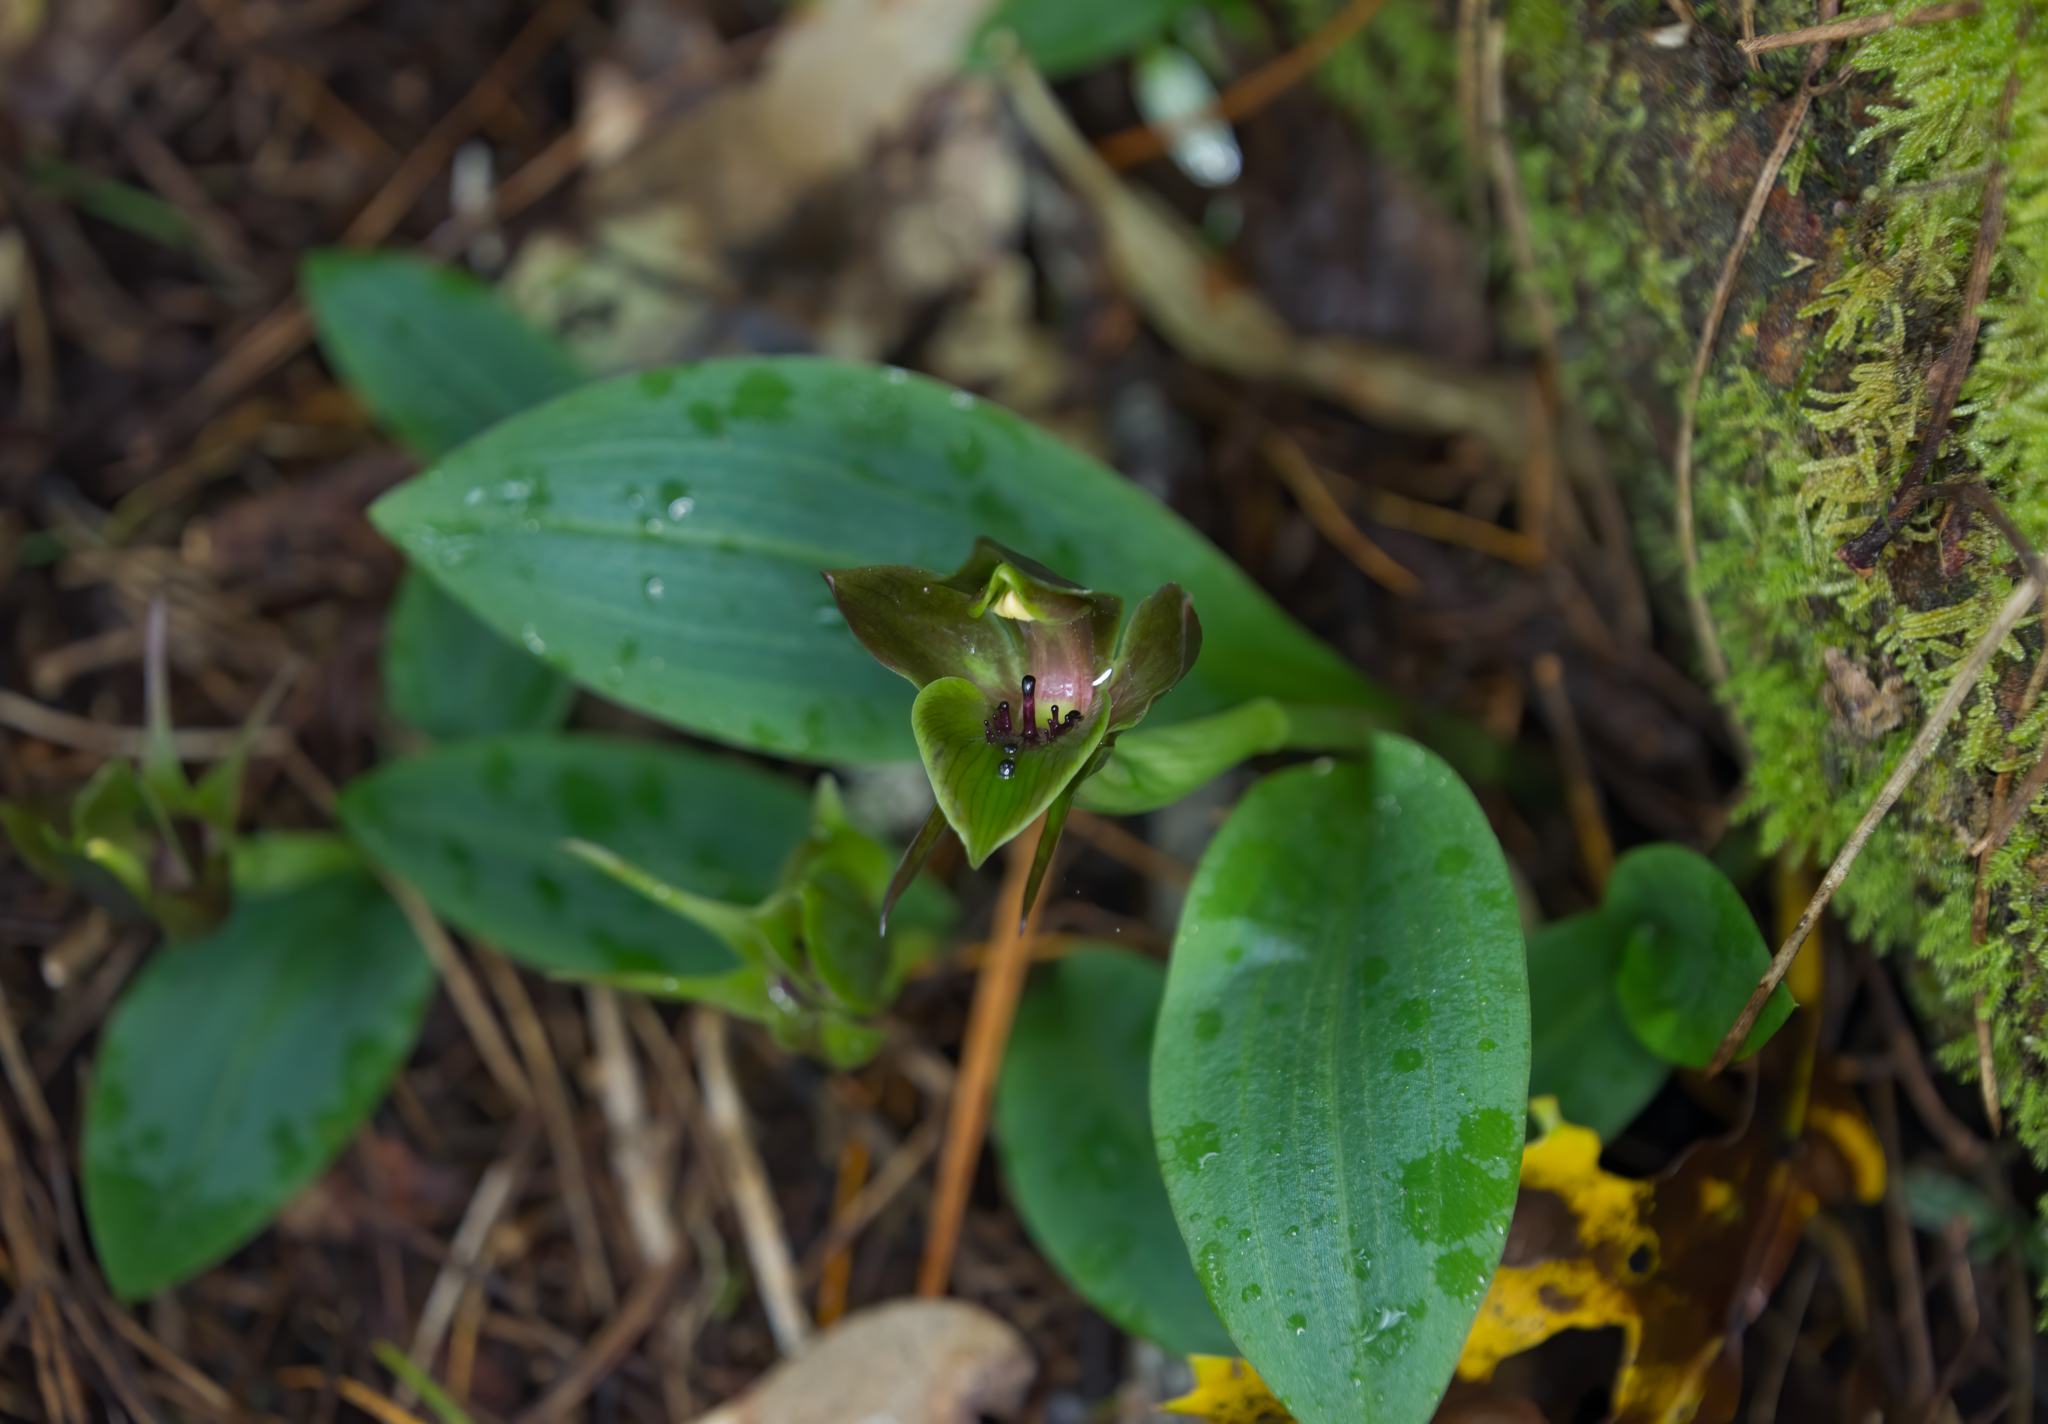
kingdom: Plantae
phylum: Tracheophyta
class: Liliopsida
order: Asparagales
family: Orchidaceae
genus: Chiloglottis
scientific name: Chiloglottis valida
